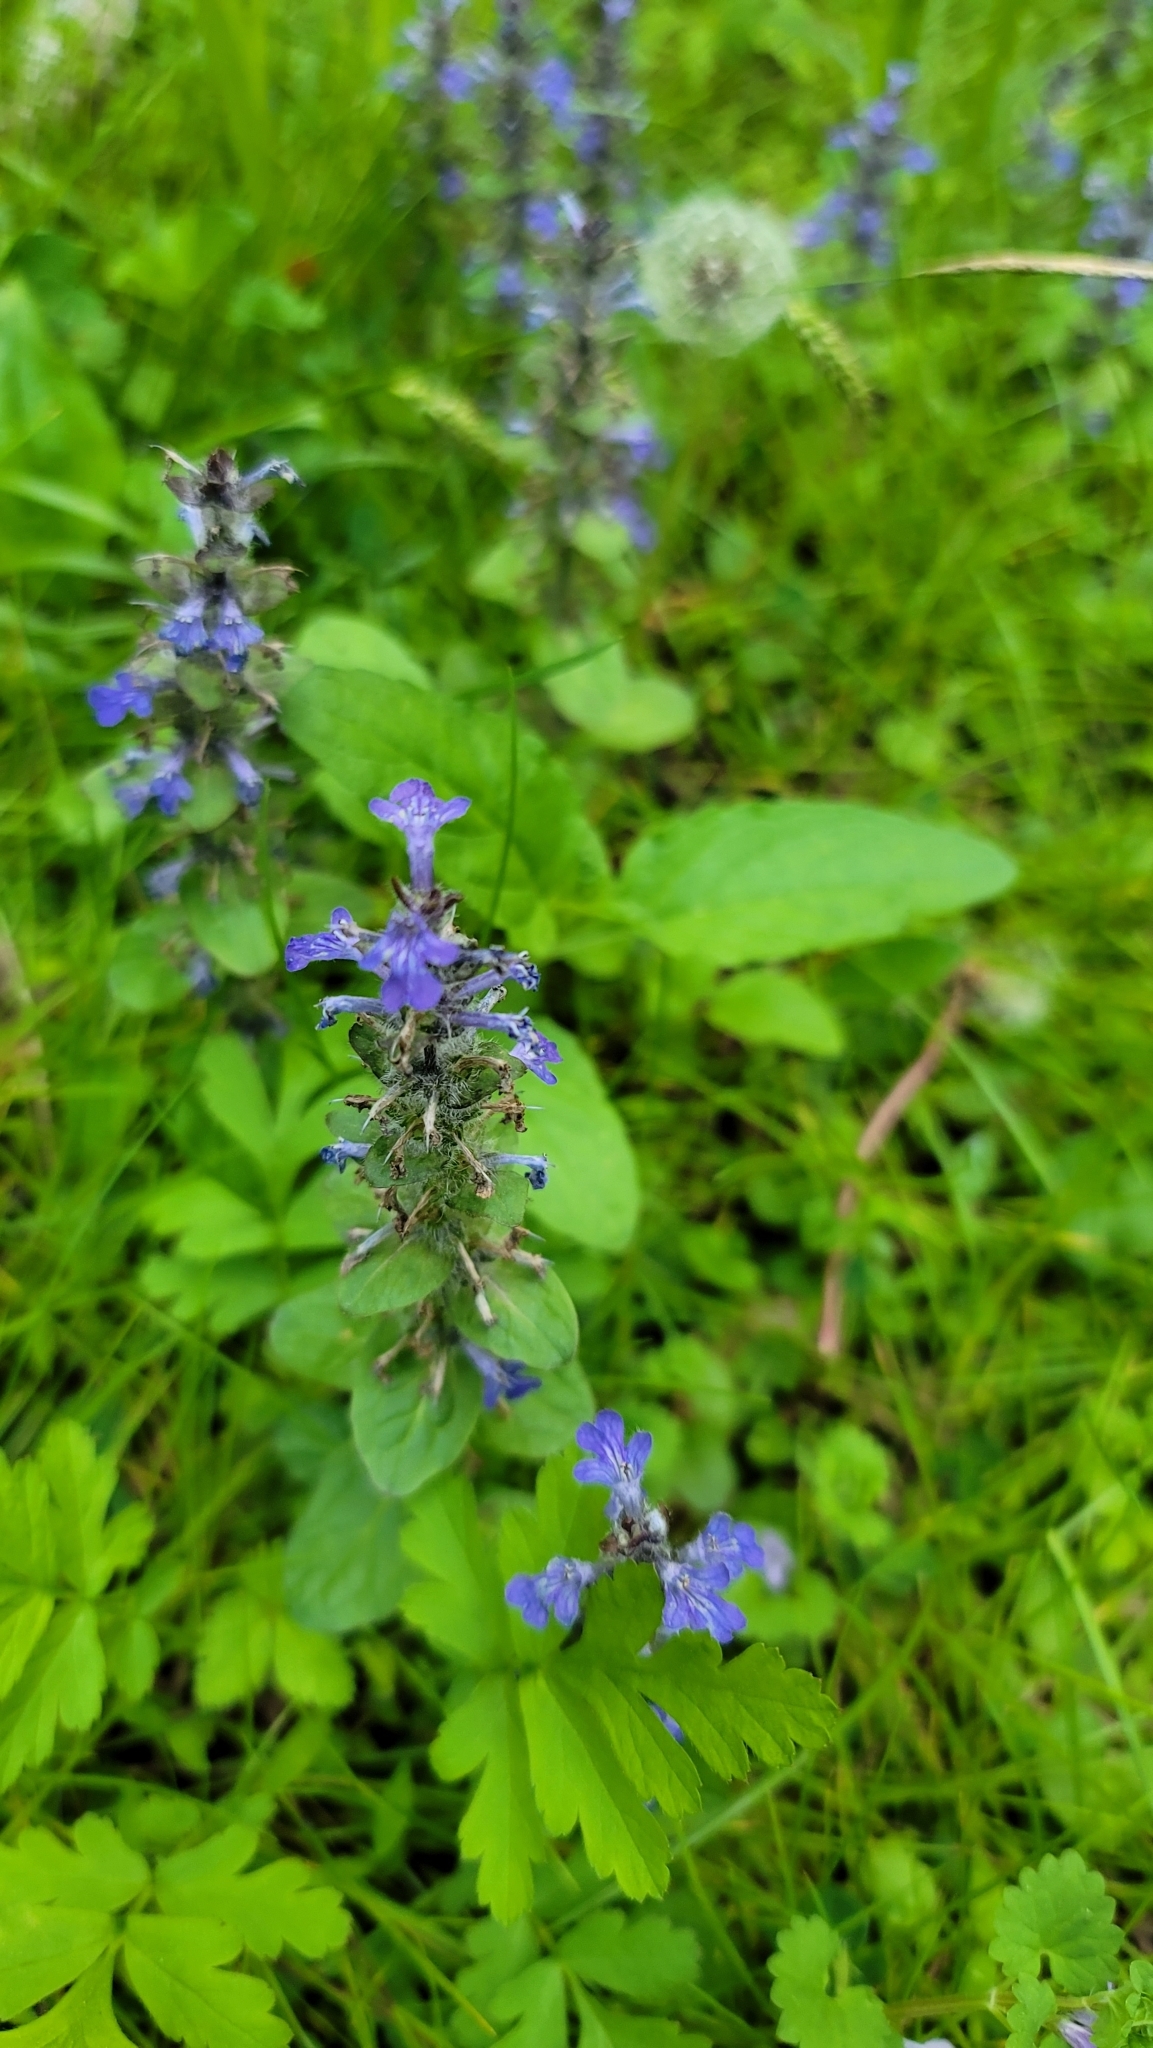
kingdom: Plantae
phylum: Tracheophyta
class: Magnoliopsida
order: Lamiales
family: Lamiaceae
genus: Ajuga
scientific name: Ajuga reptans
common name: Bugle
